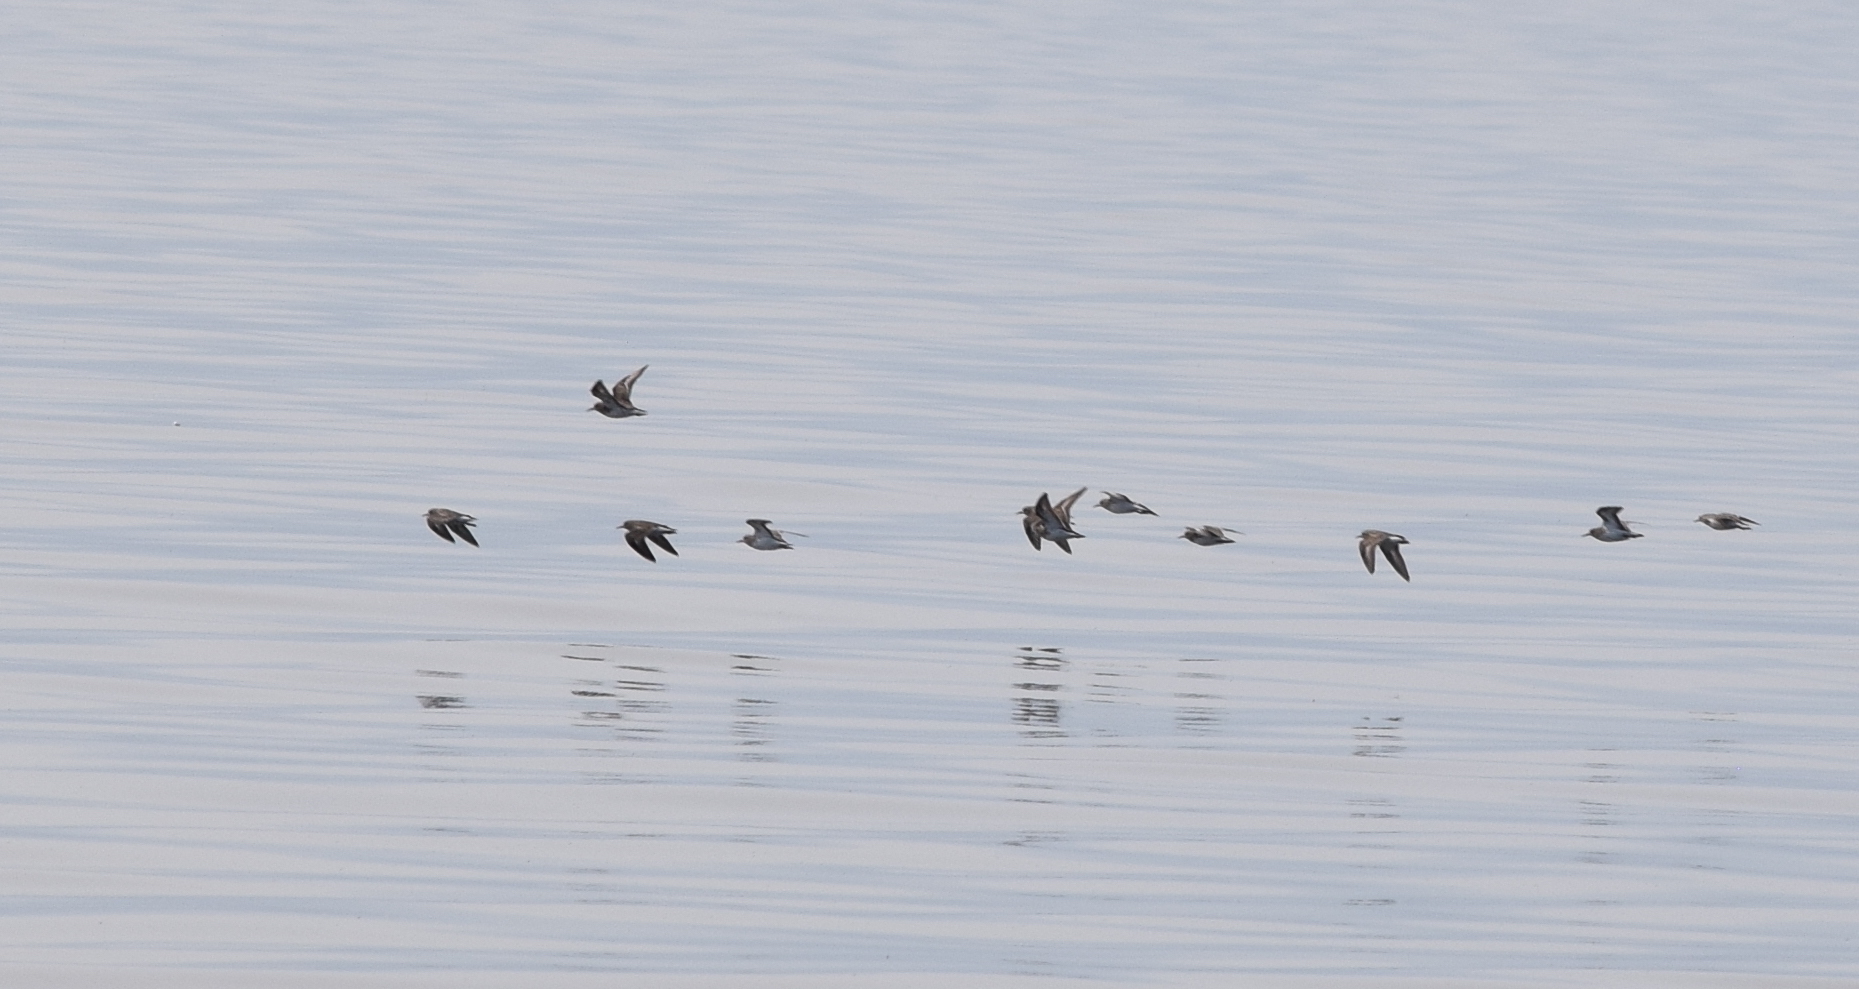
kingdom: Animalia
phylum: Chordata
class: Aves
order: Charadriiformes
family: Scolopacidae
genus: Calidris
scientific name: Calidris minutilla
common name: Least sandpiper
